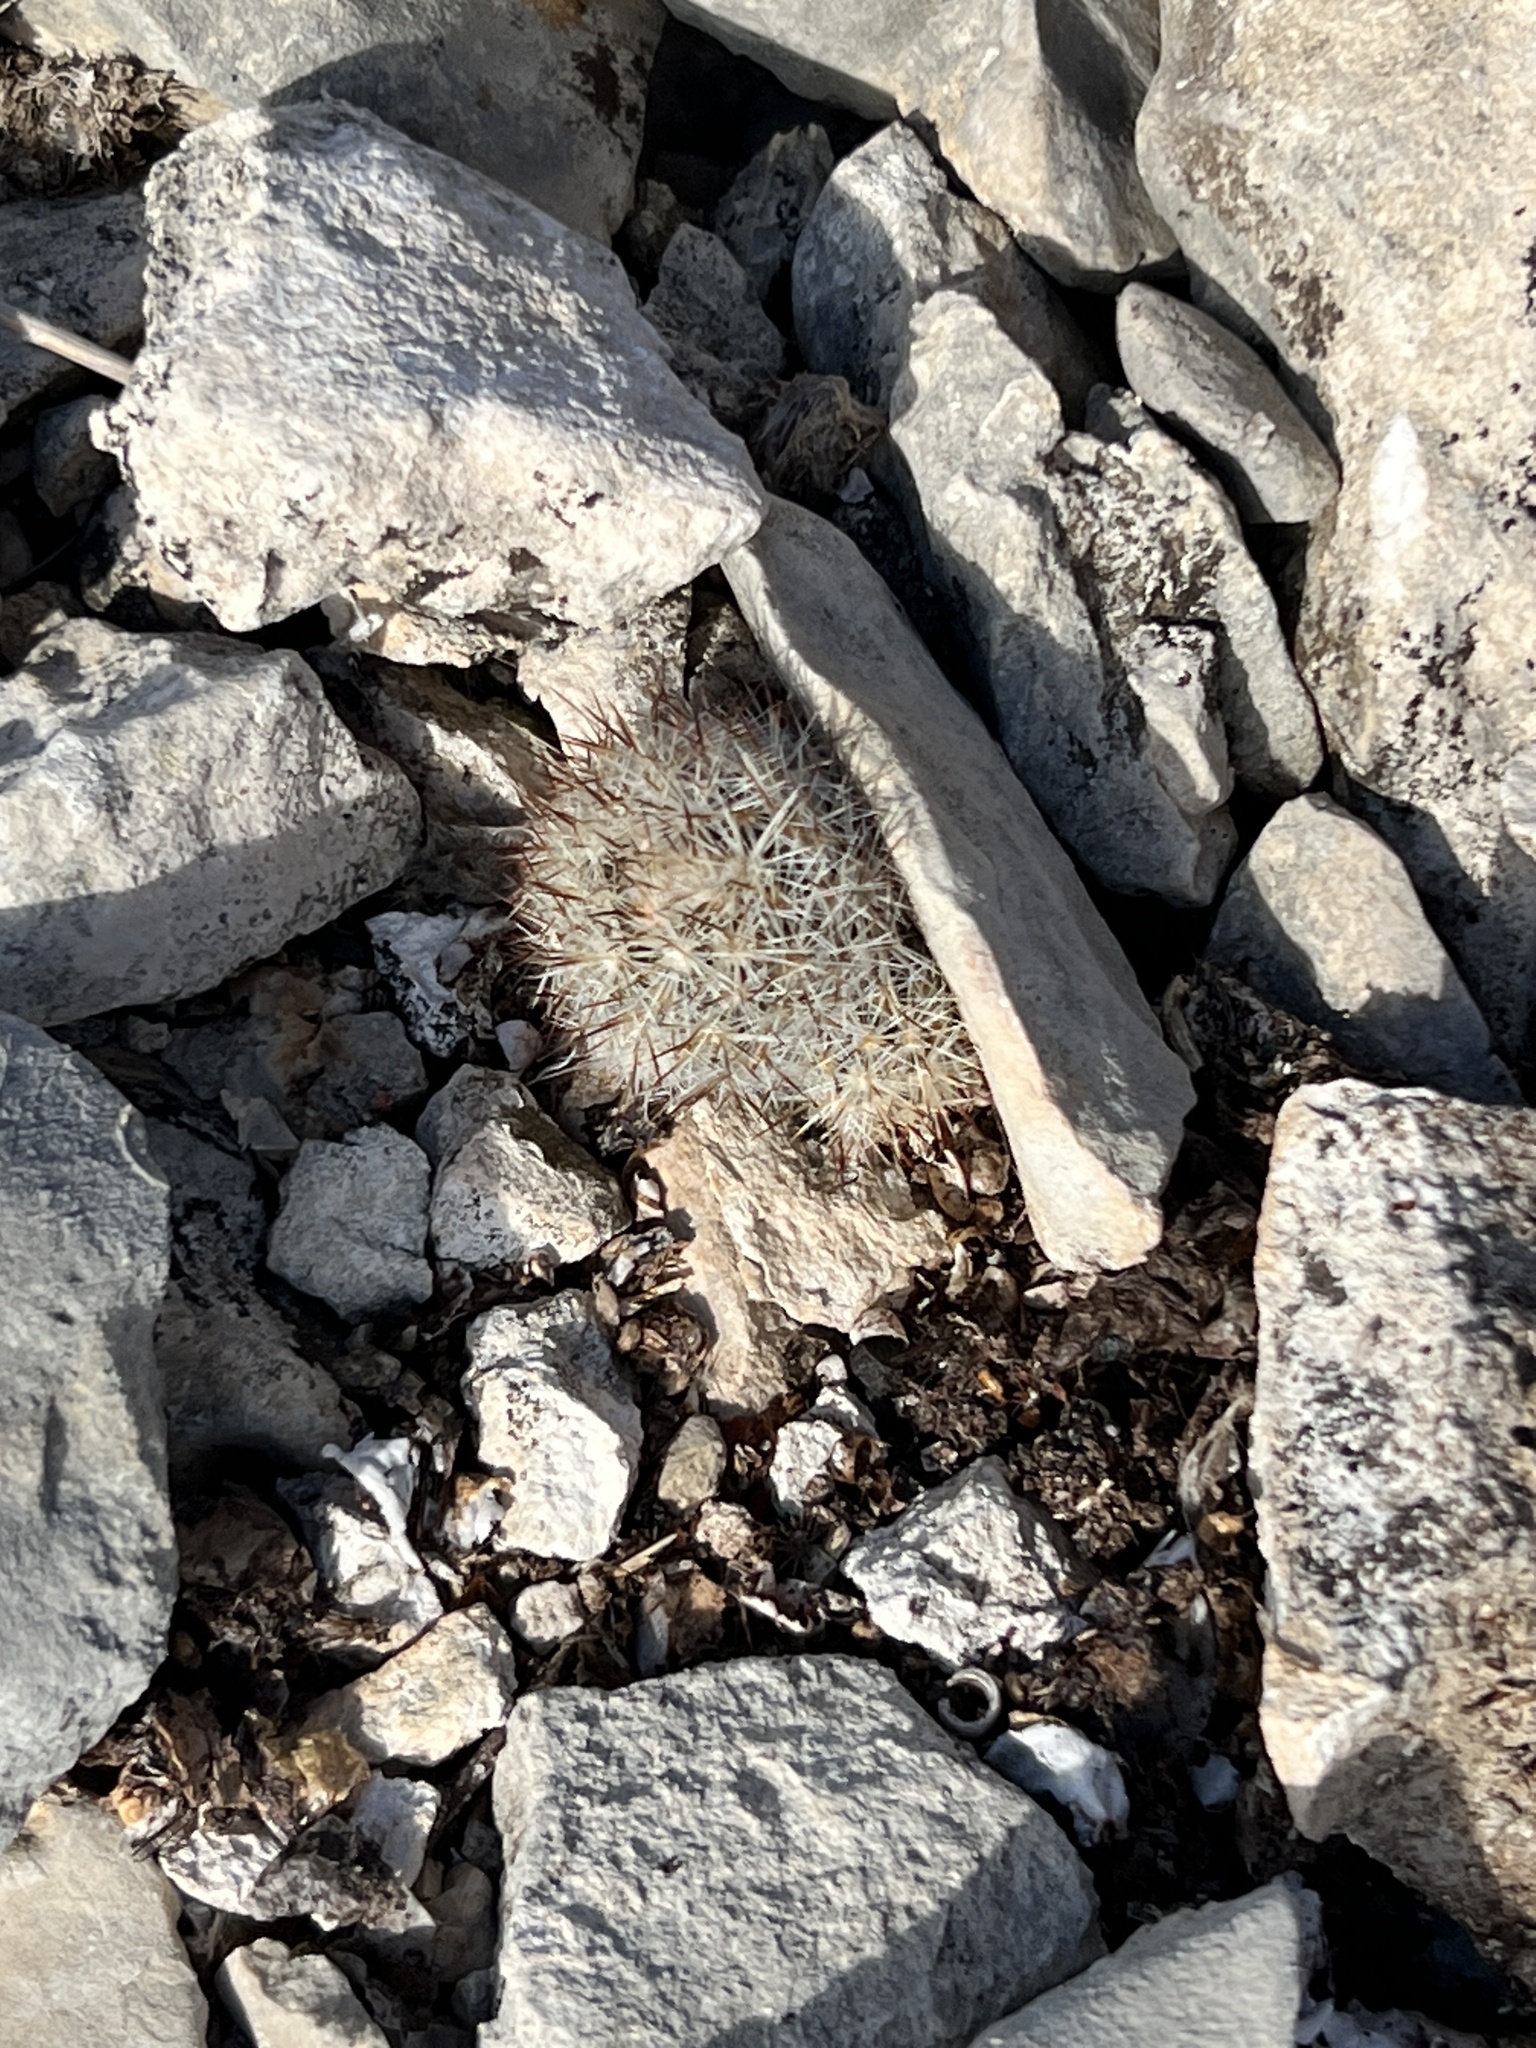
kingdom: Plantae
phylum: Tracheophyta
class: Magnoliopsida
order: Caryophyllales
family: Cactaceae
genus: Pelecyphora
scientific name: Pelecyphora emskoetteriana
